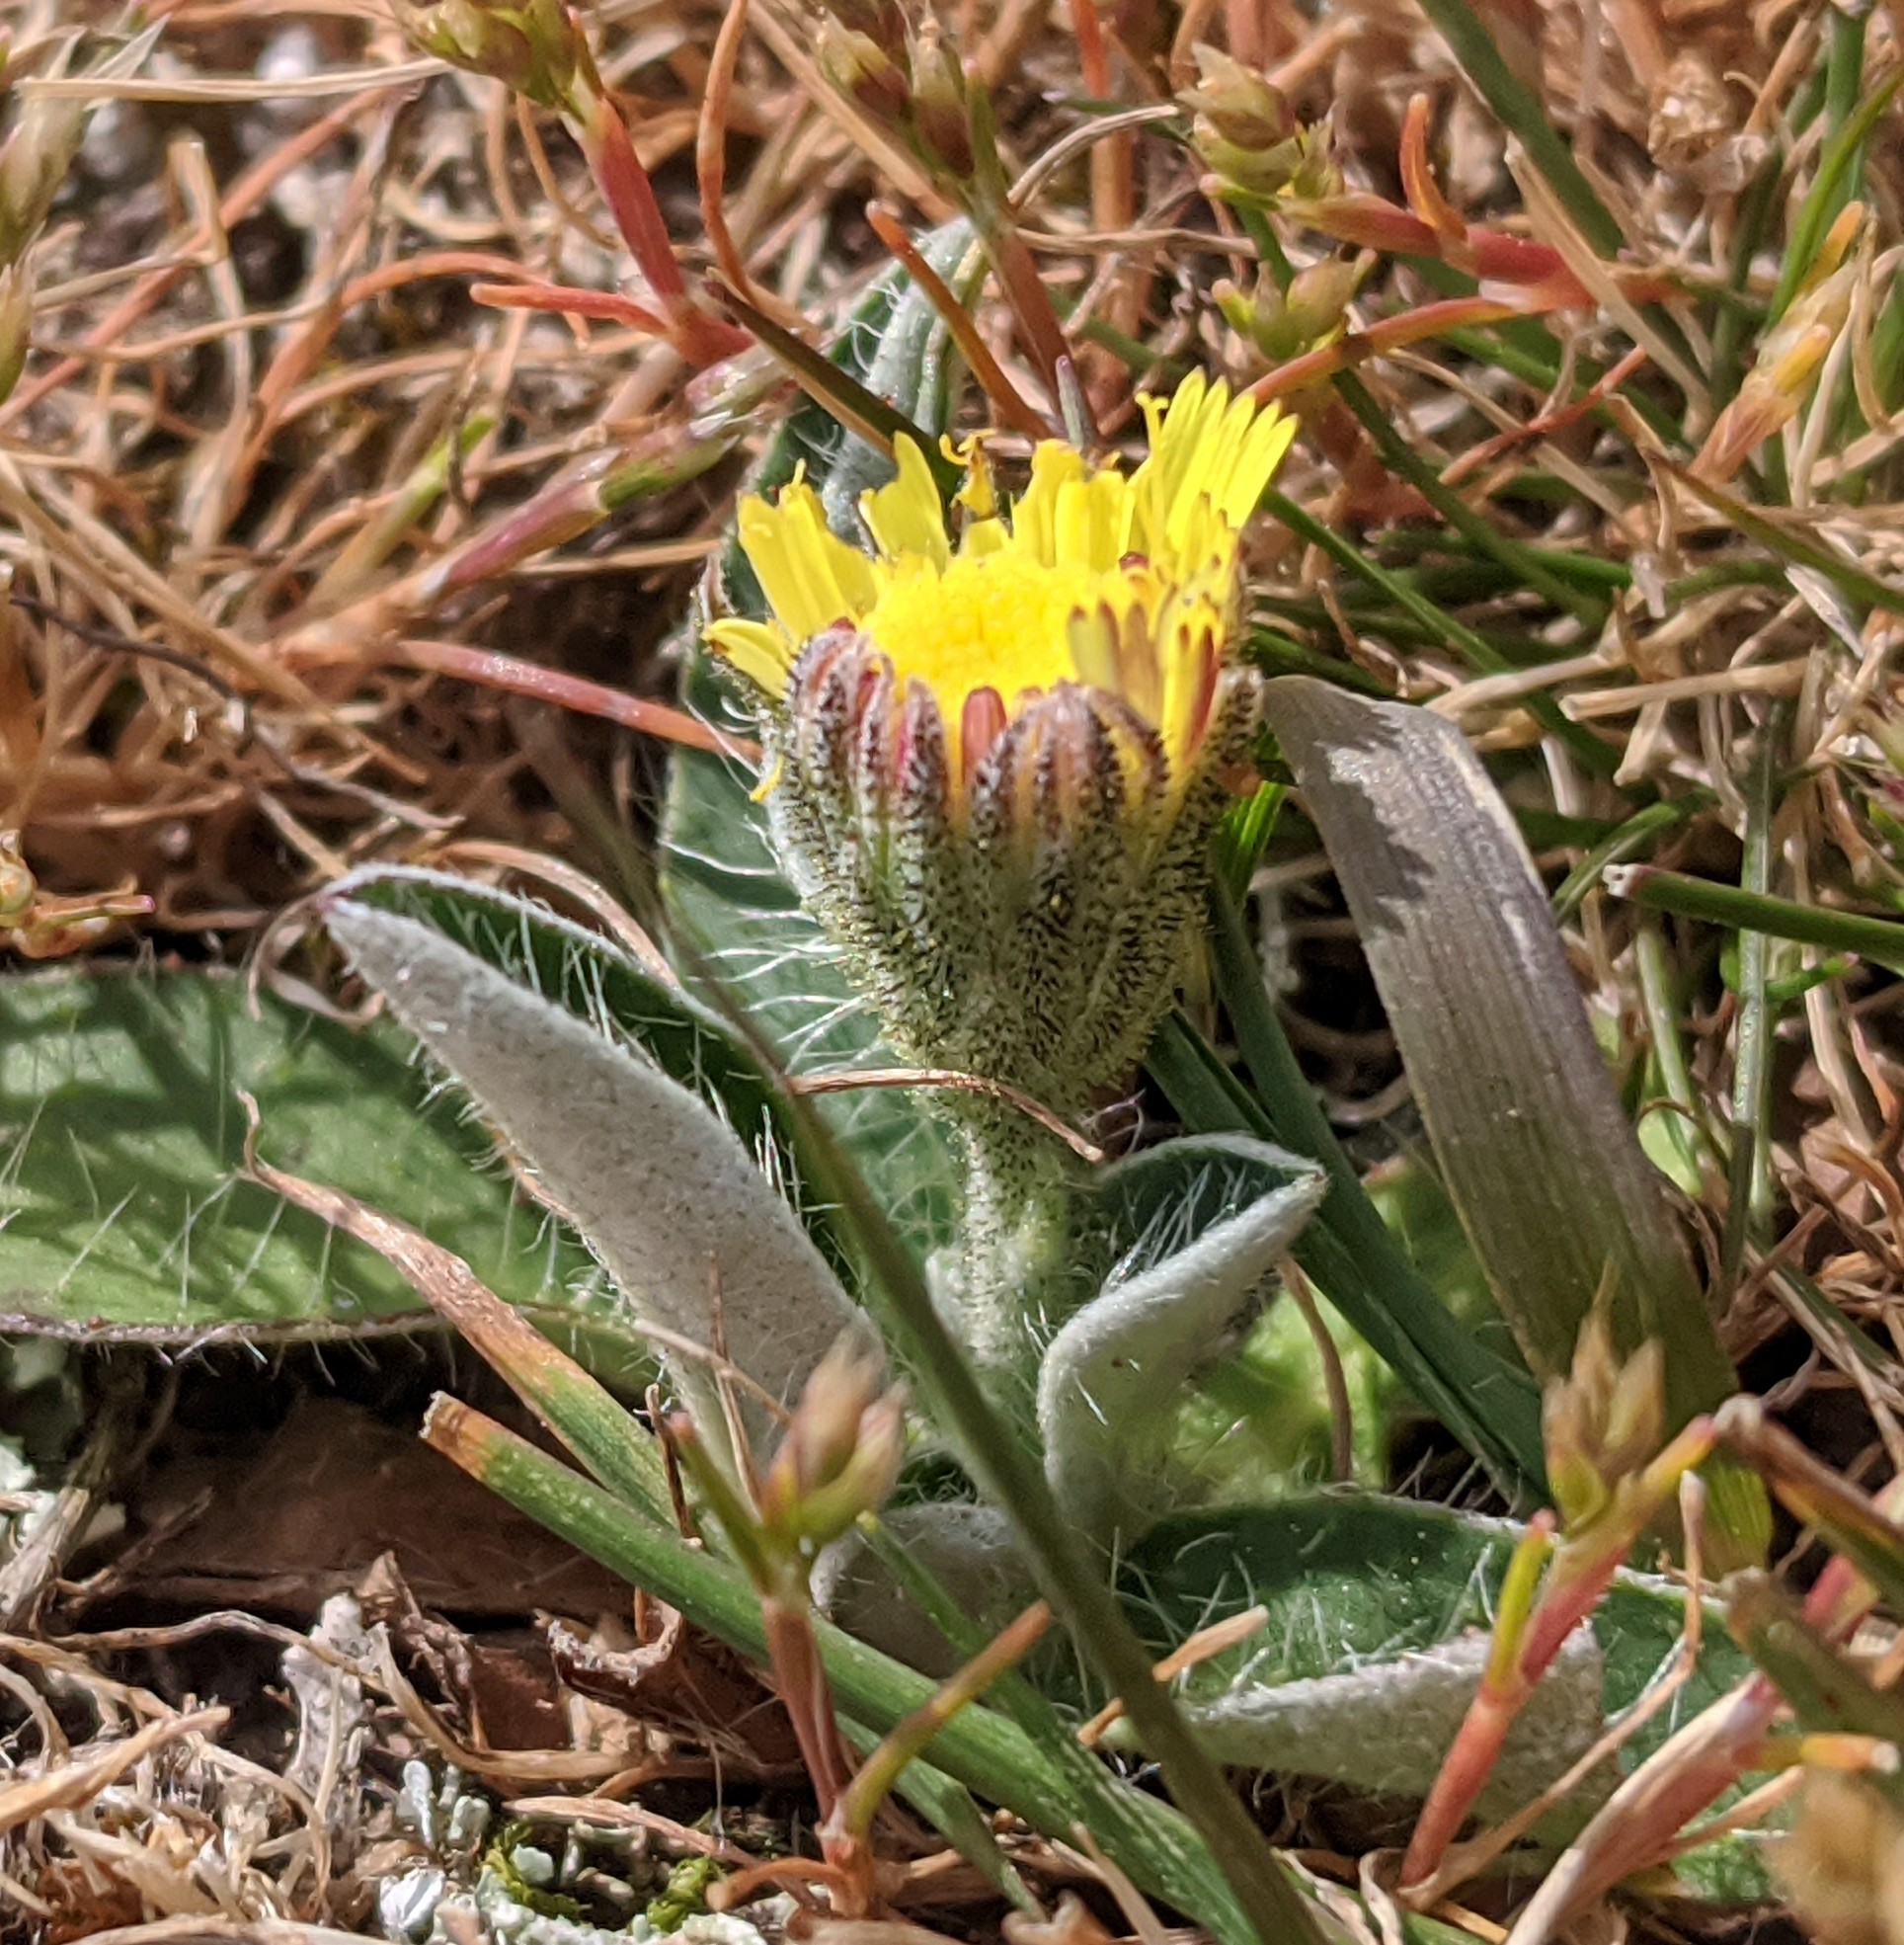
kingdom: Plantae
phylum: Tracheophyta
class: Magnoliopsida
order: Asterales
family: Asteraceae
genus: Pilosella
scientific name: Pilosella officinarum
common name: Mouse-ear hawkweed
